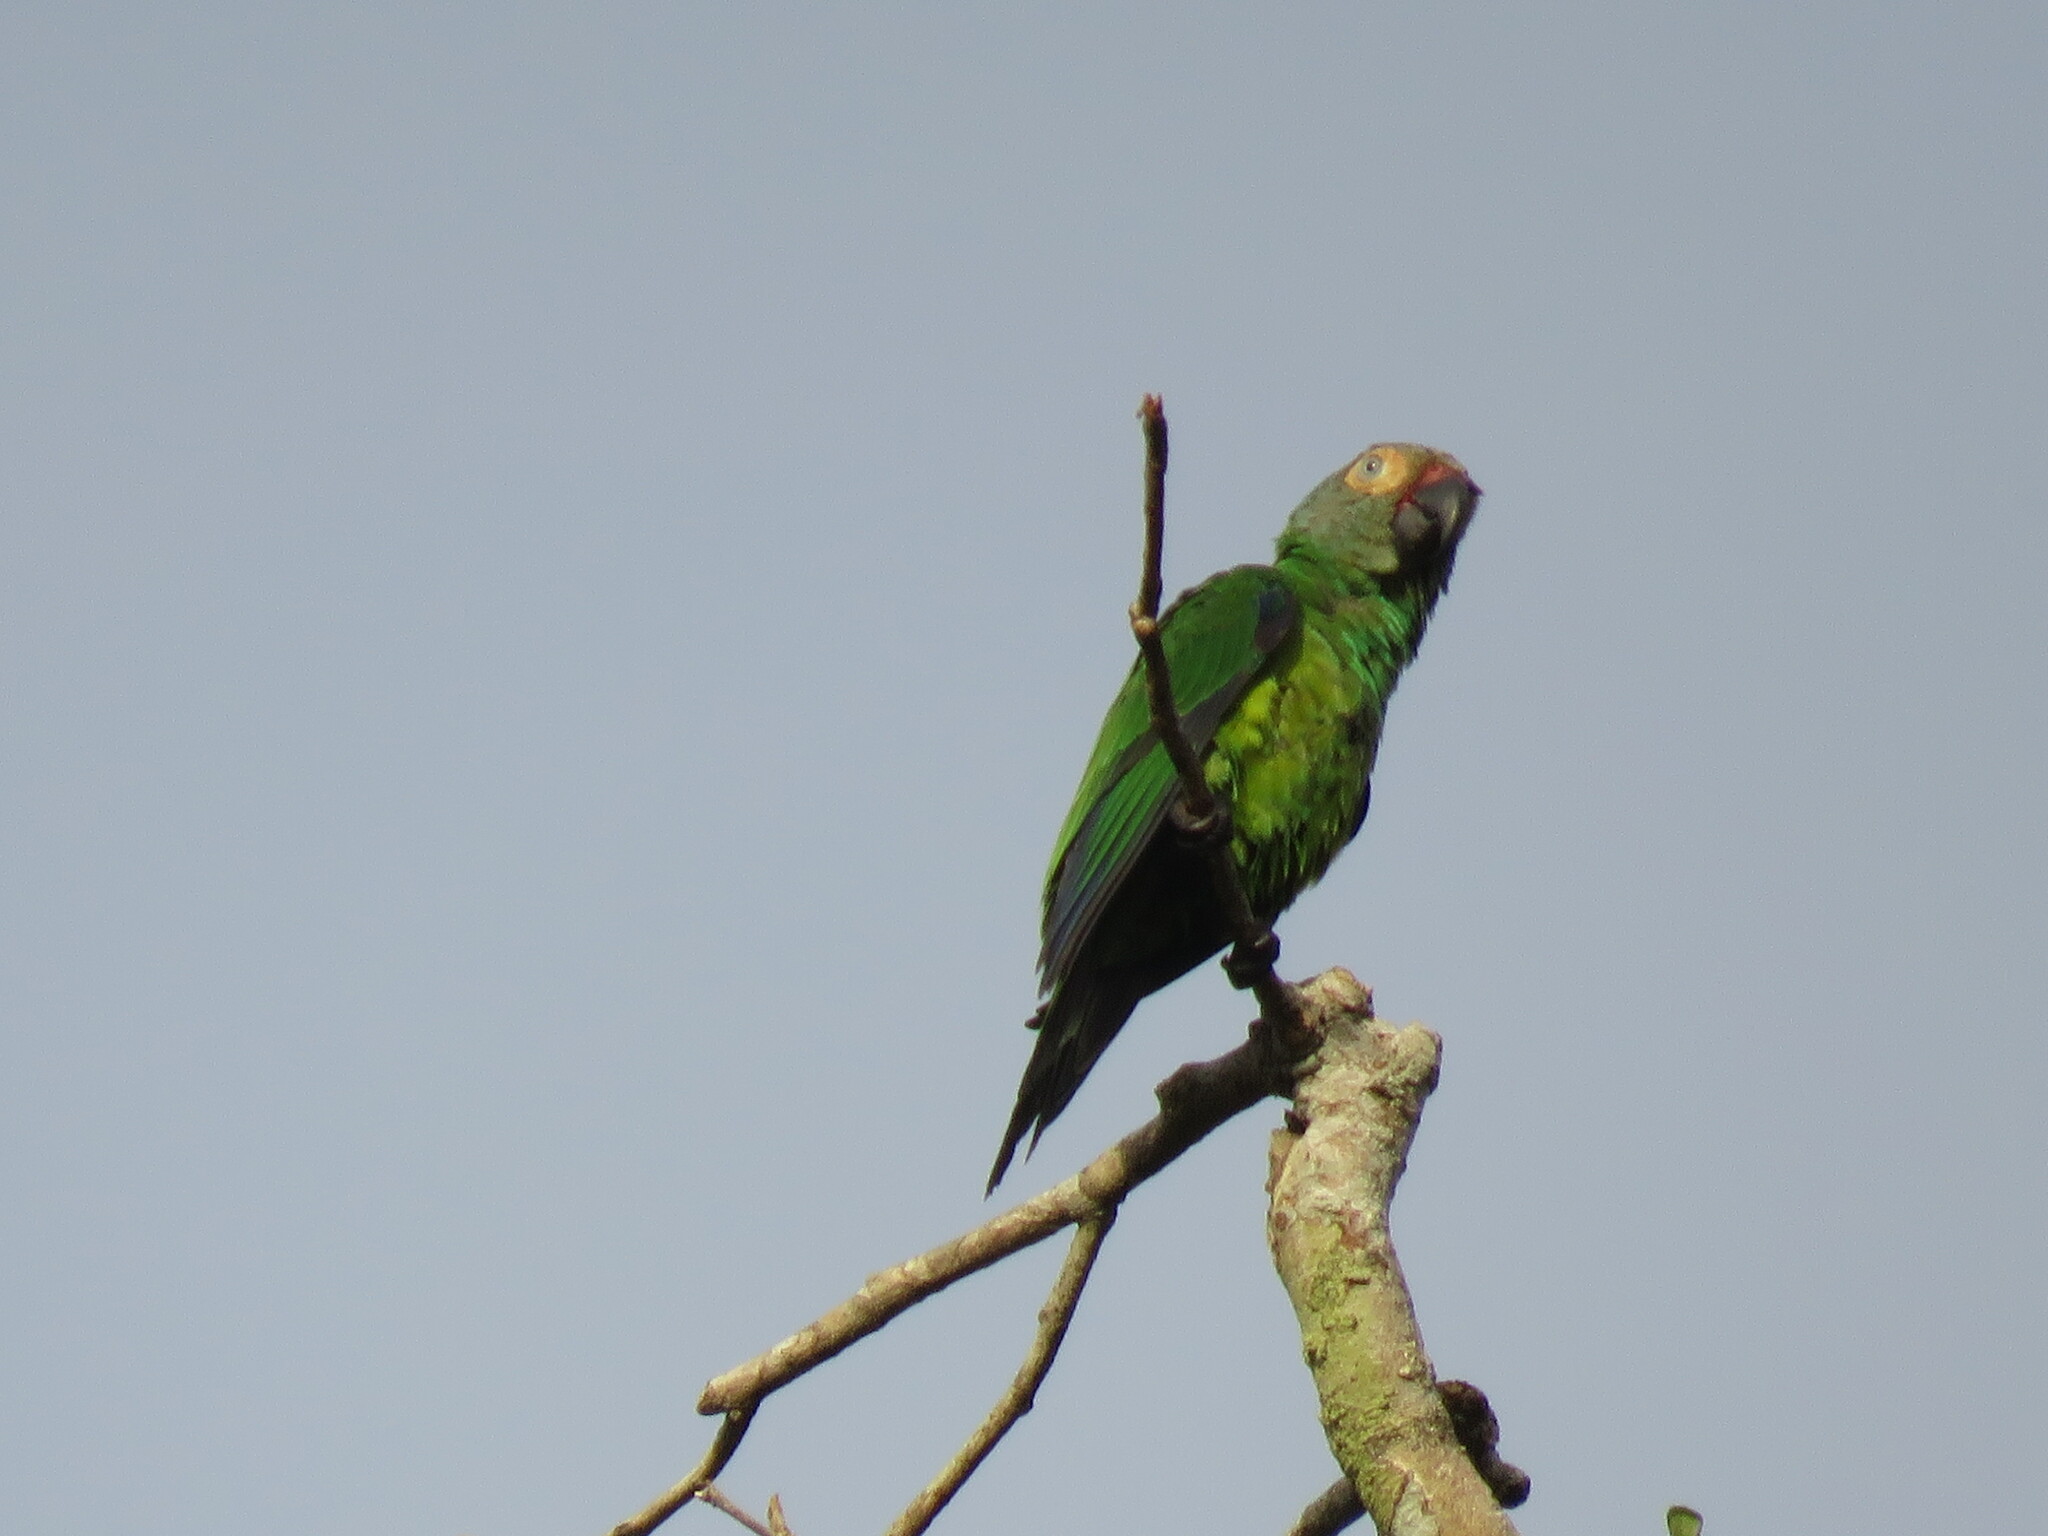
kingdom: Animalia
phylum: Chordata
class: Aves
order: Psittaciformes
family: Psittacidae
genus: Aratinga
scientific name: Aratinga weddellii
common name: Dusky-headed parakeet
